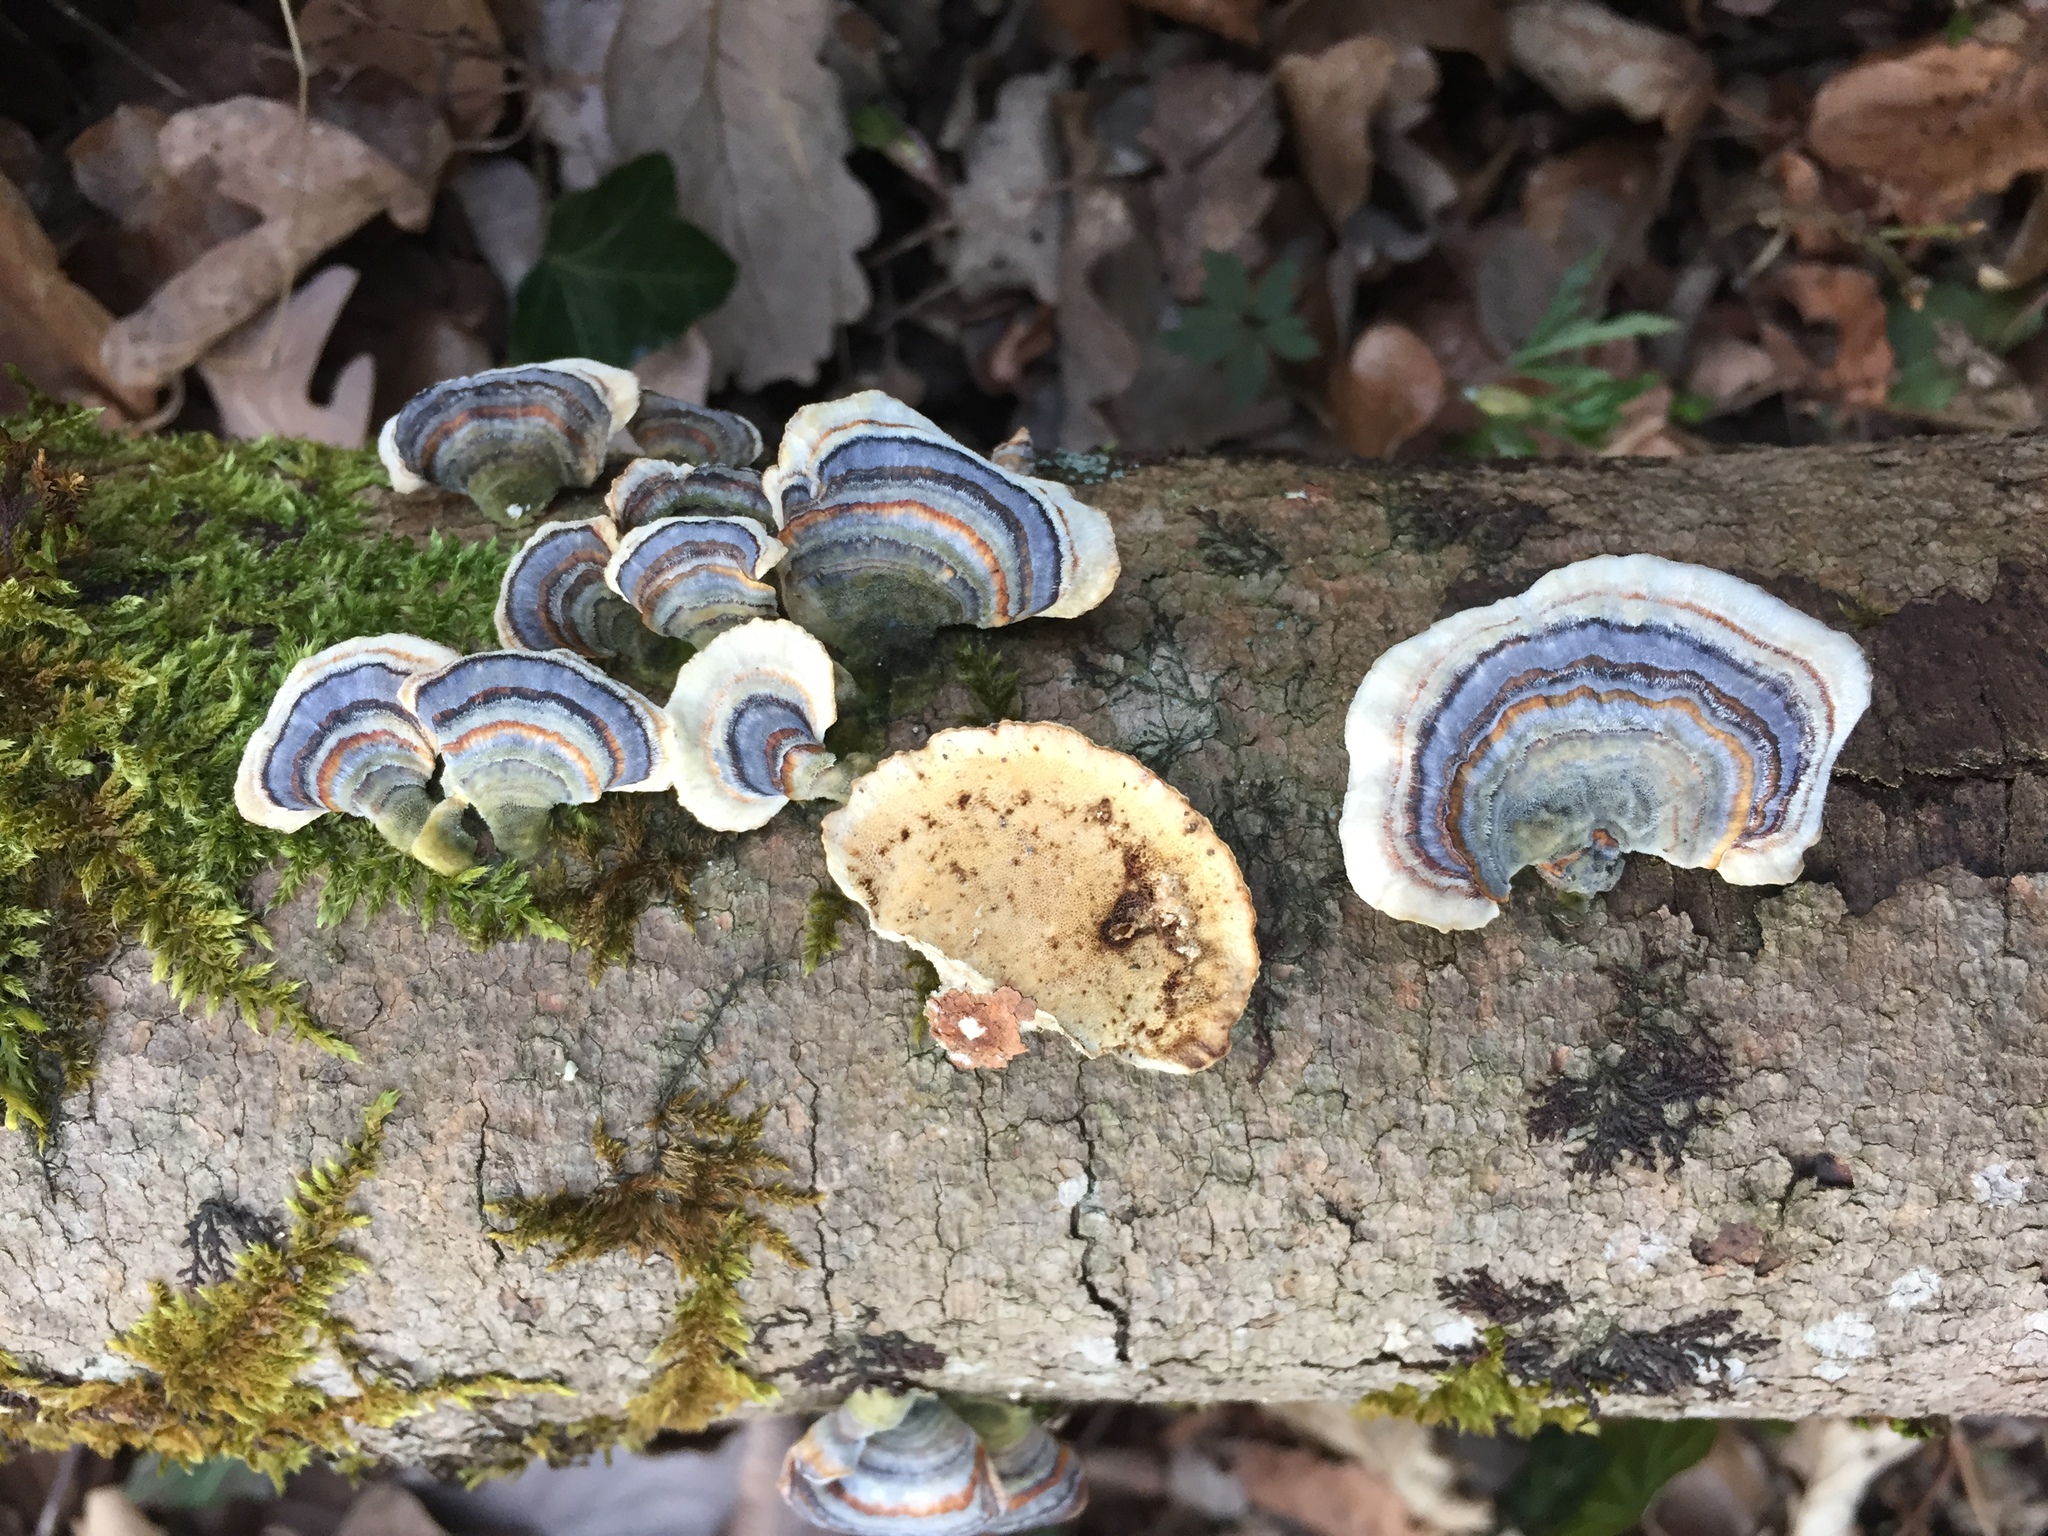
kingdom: Fungi
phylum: Basidiomycota
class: Agaricomycetes
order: Polyporales
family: Polyporaceae
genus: Trametes
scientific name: Trametes versicolor
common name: Turkeytail
